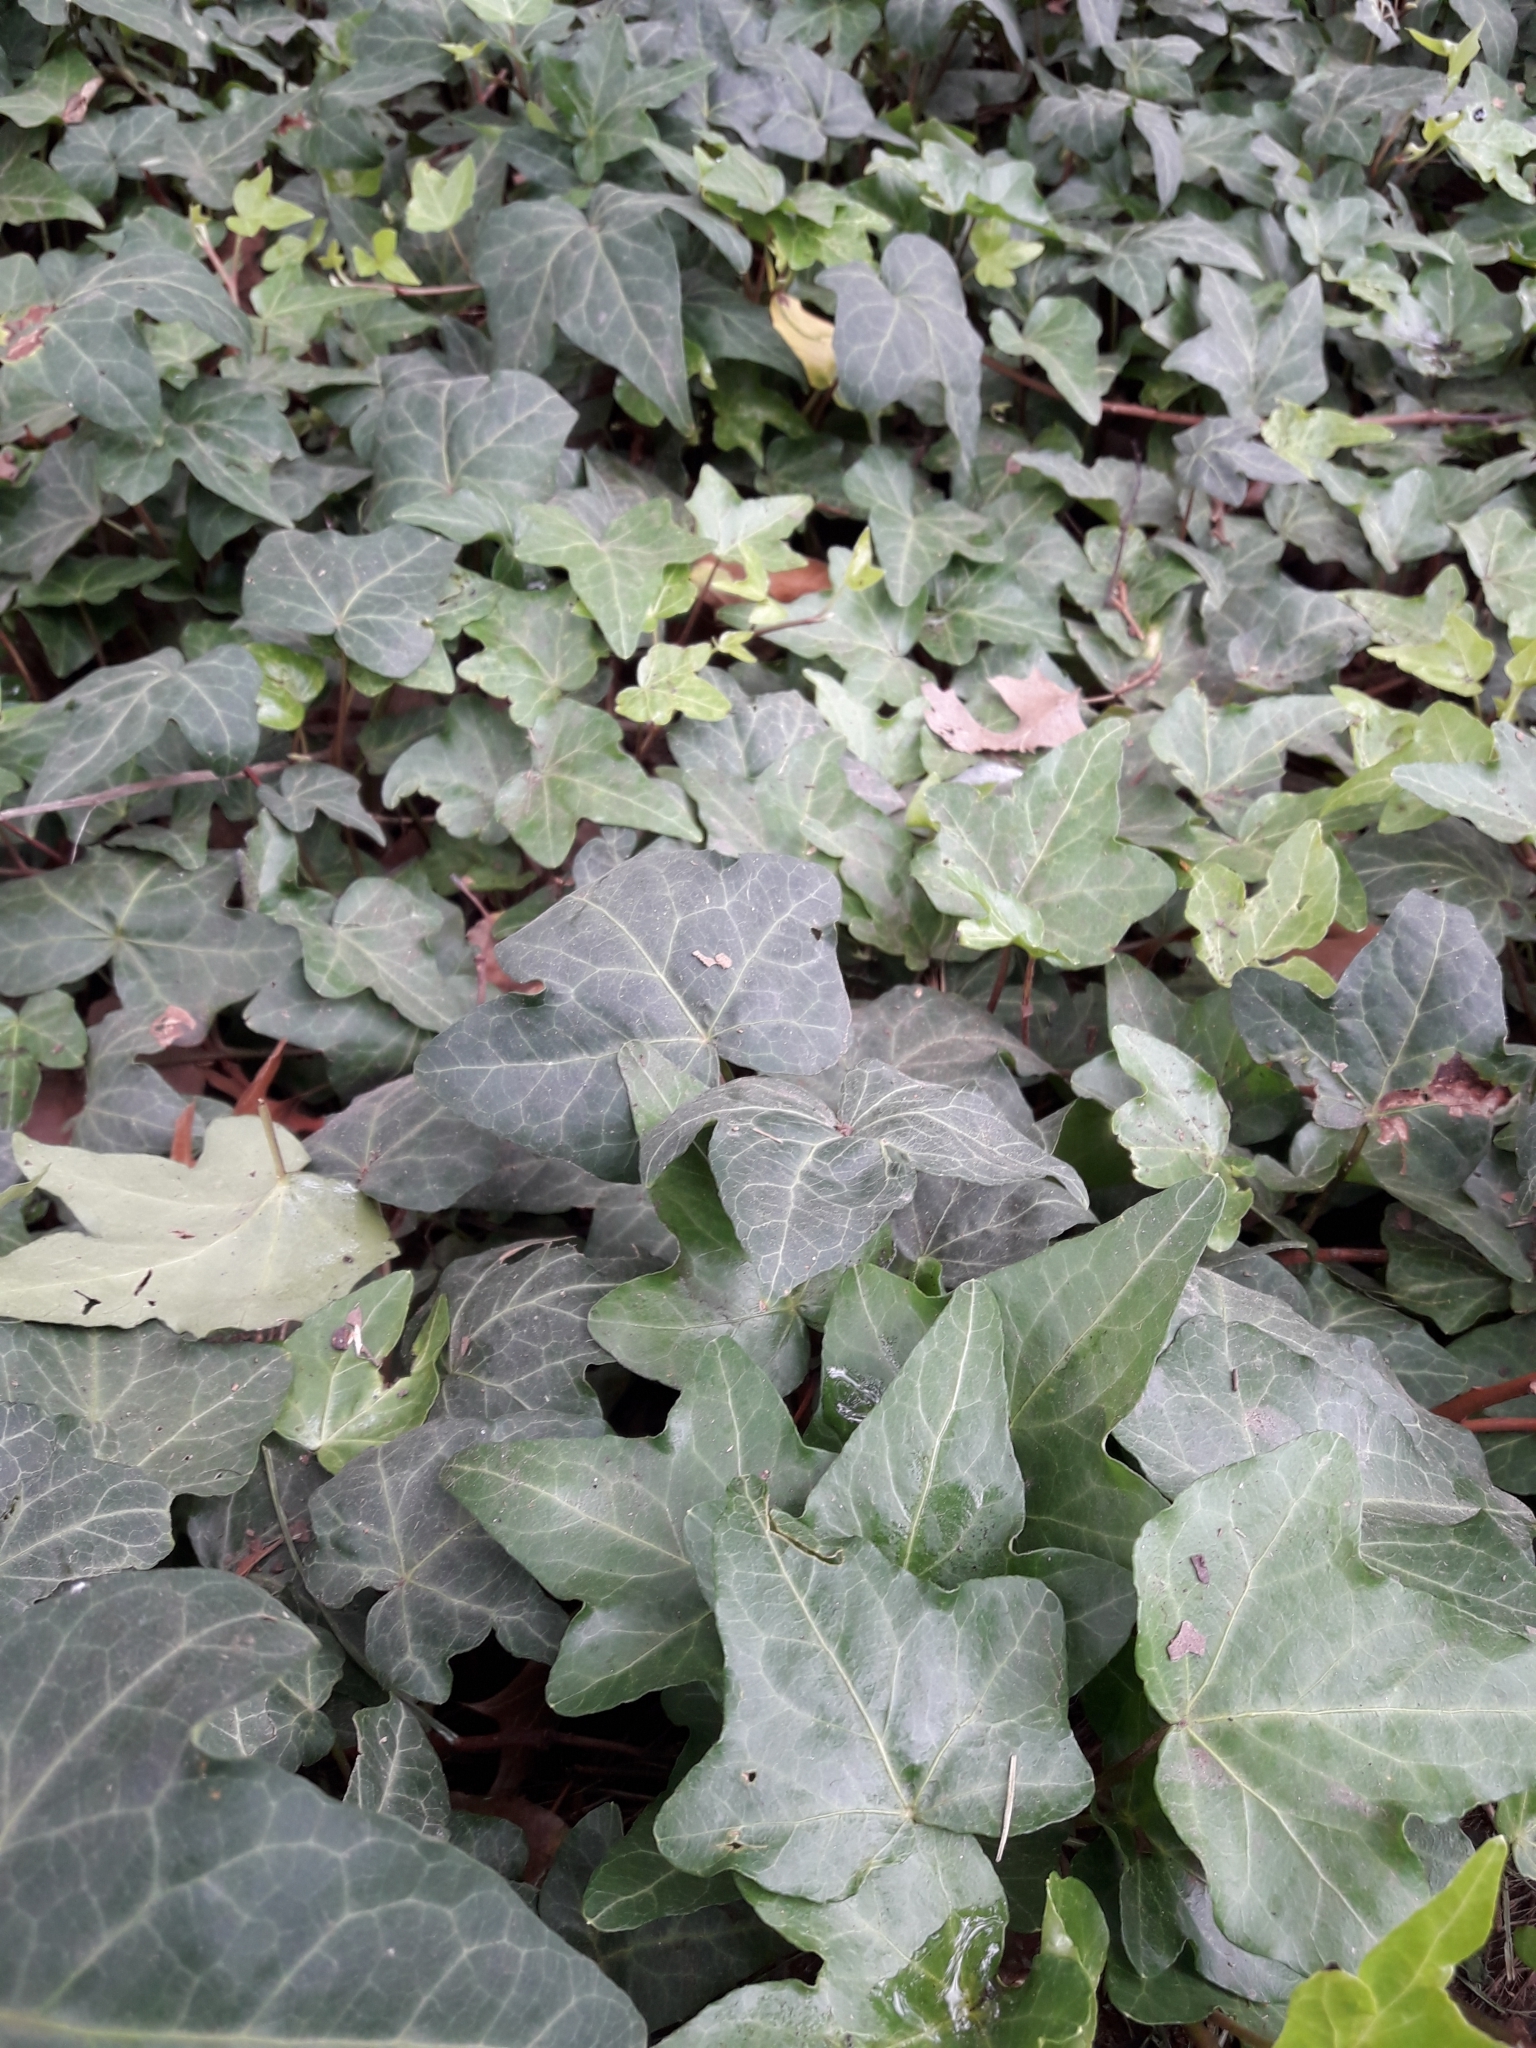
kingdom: Plantae
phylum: Tracheophyta
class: Magnoliopsida
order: Apiales
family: Araliaceae
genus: Hedera
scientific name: Hedera helix
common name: Ivy
